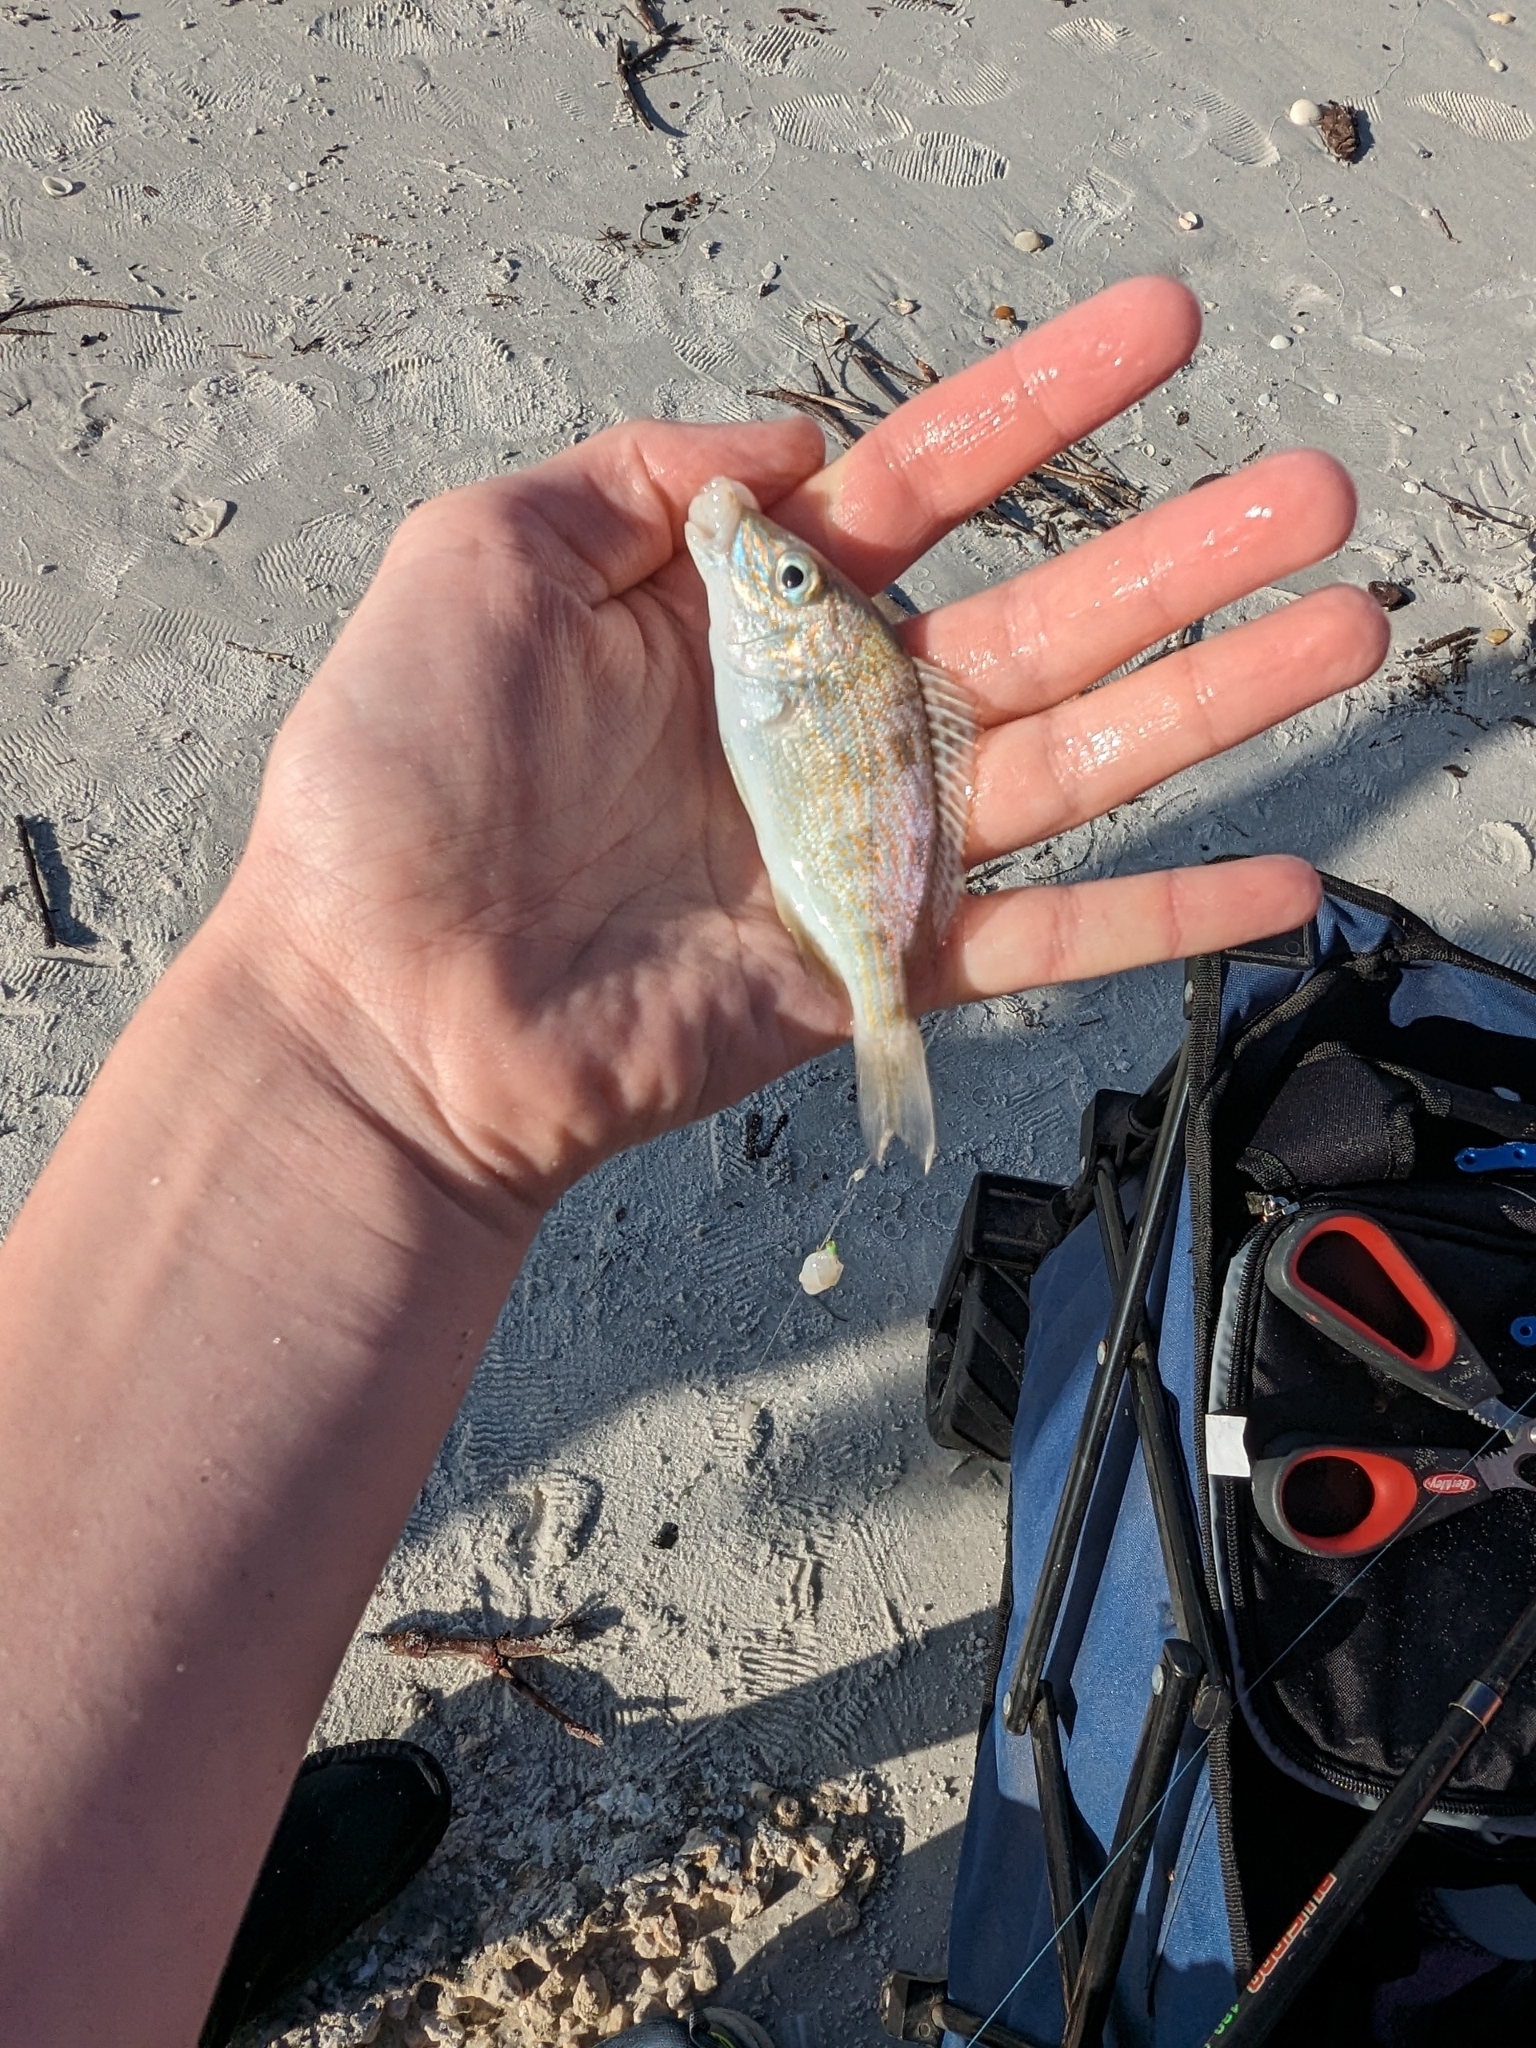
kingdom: Animalia
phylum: Chordata
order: Perciformes
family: Haemulidae
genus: Orthopristis
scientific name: Orthopristis chrysoptera
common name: Pigfish
